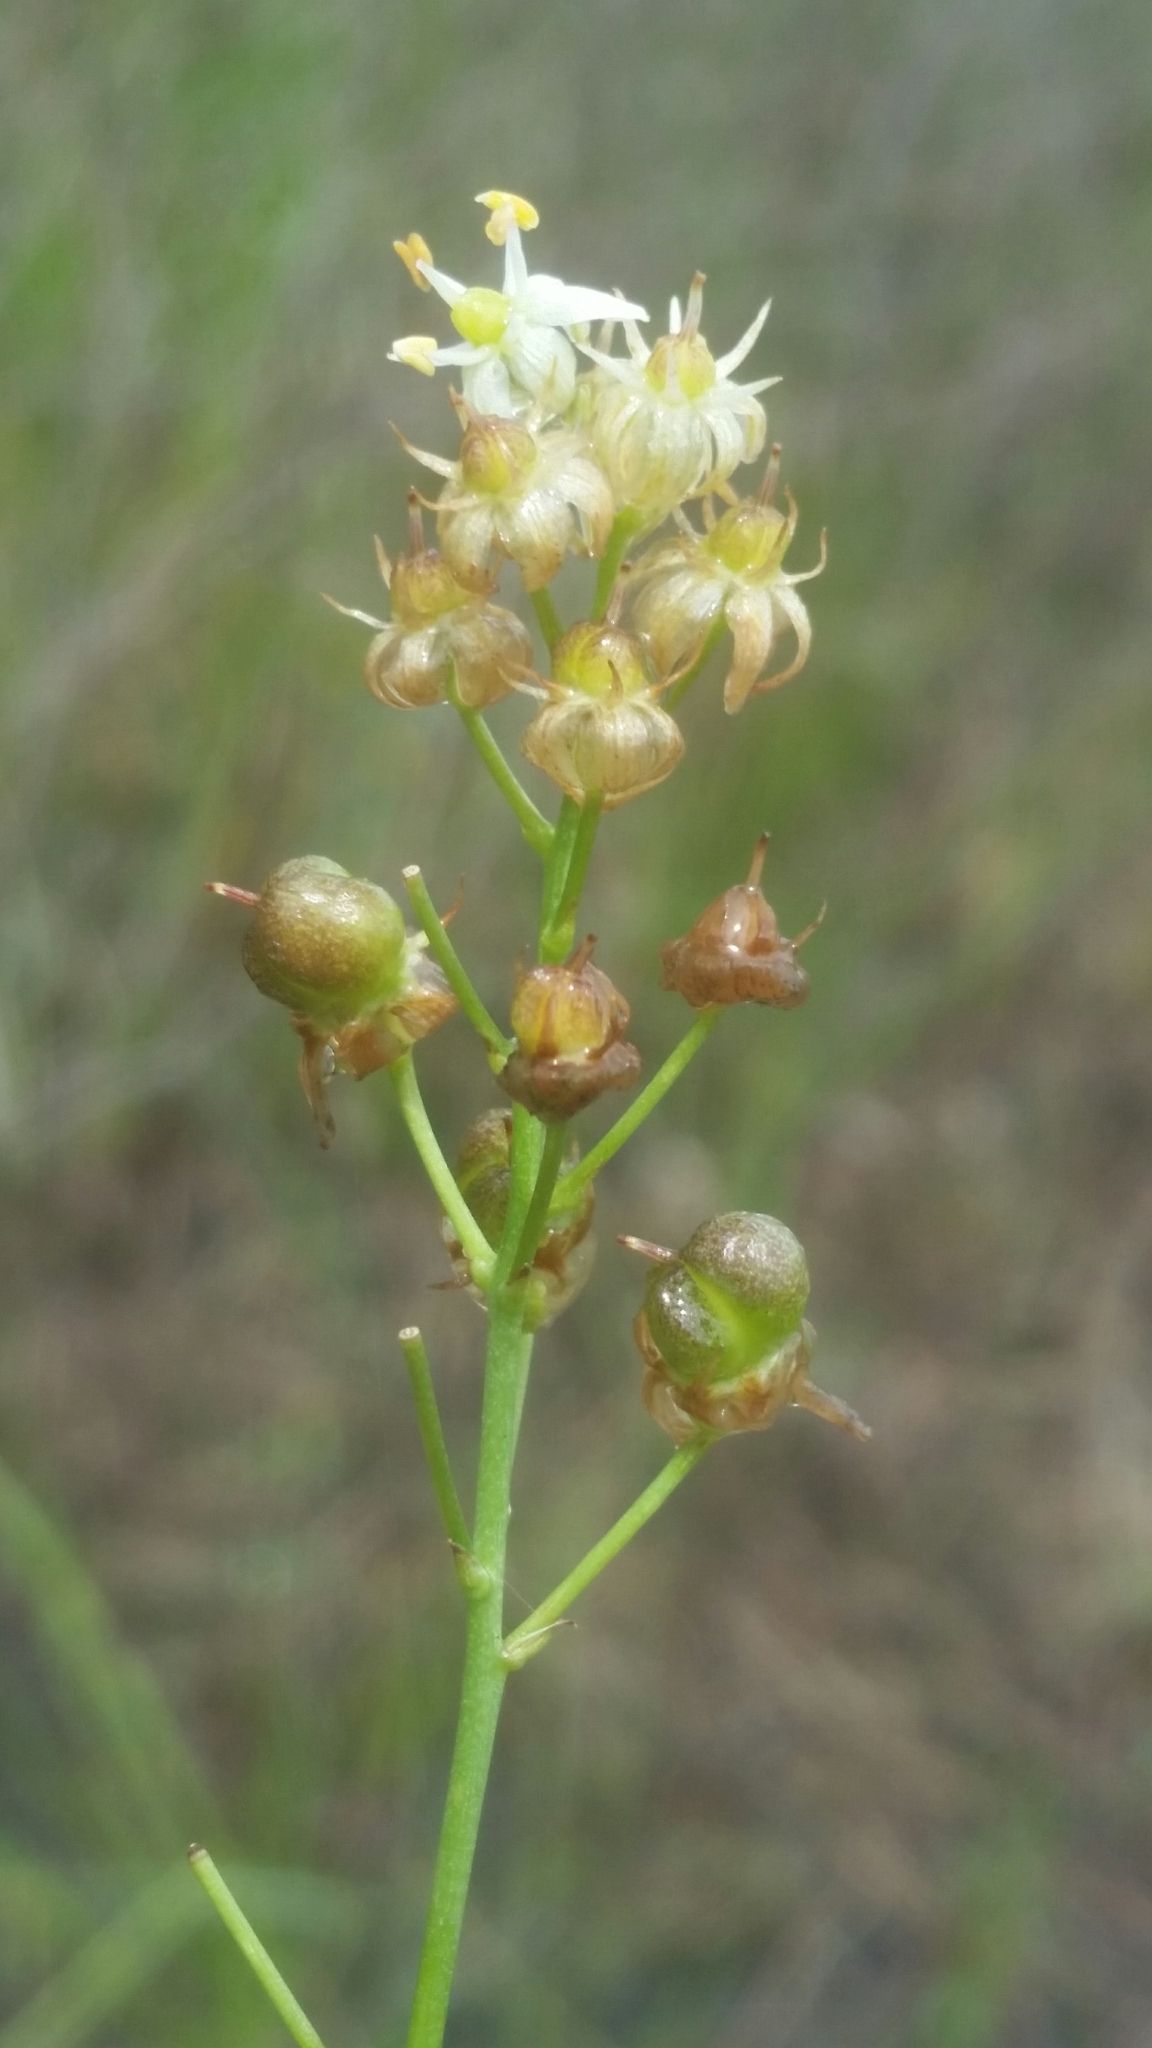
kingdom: Plantae
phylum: Tracheophyta
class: Liliopsida
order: Asparagales
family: Asparagaceae
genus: Schoenolirion
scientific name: Schoenolirion albiflorum
